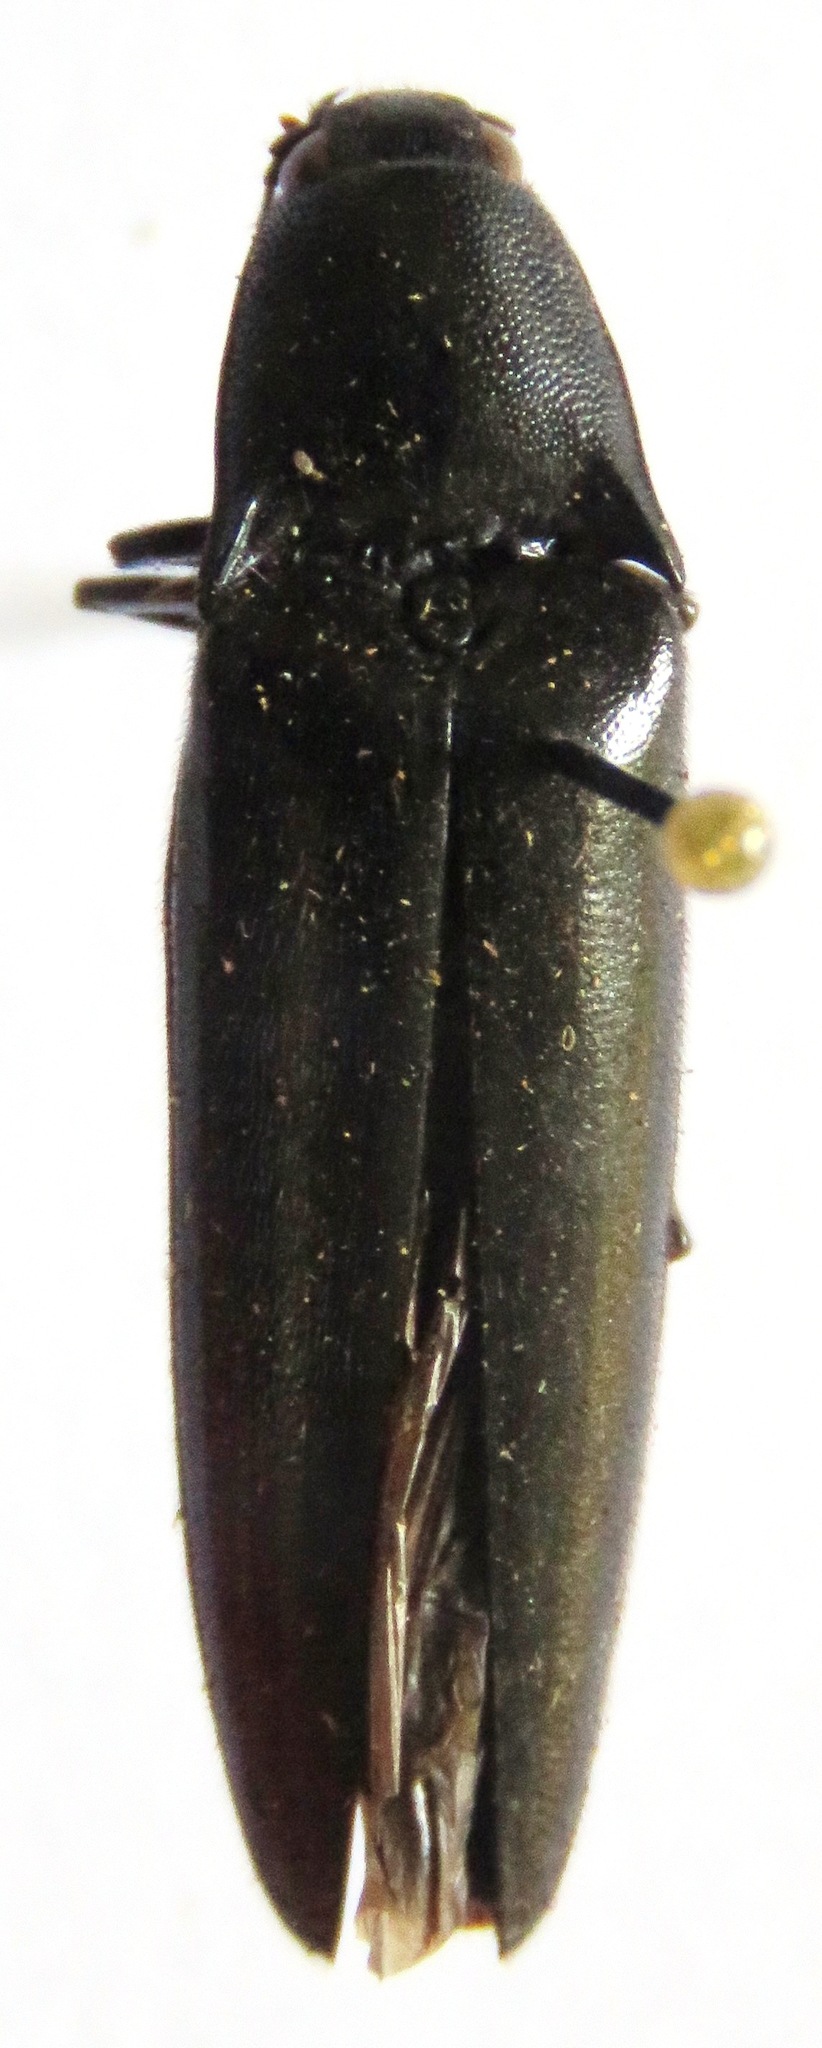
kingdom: Animalia
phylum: Arthropoda
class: Insecta
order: Coleoptera
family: Elateridae
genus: Orthostethus
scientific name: Orthostethus
